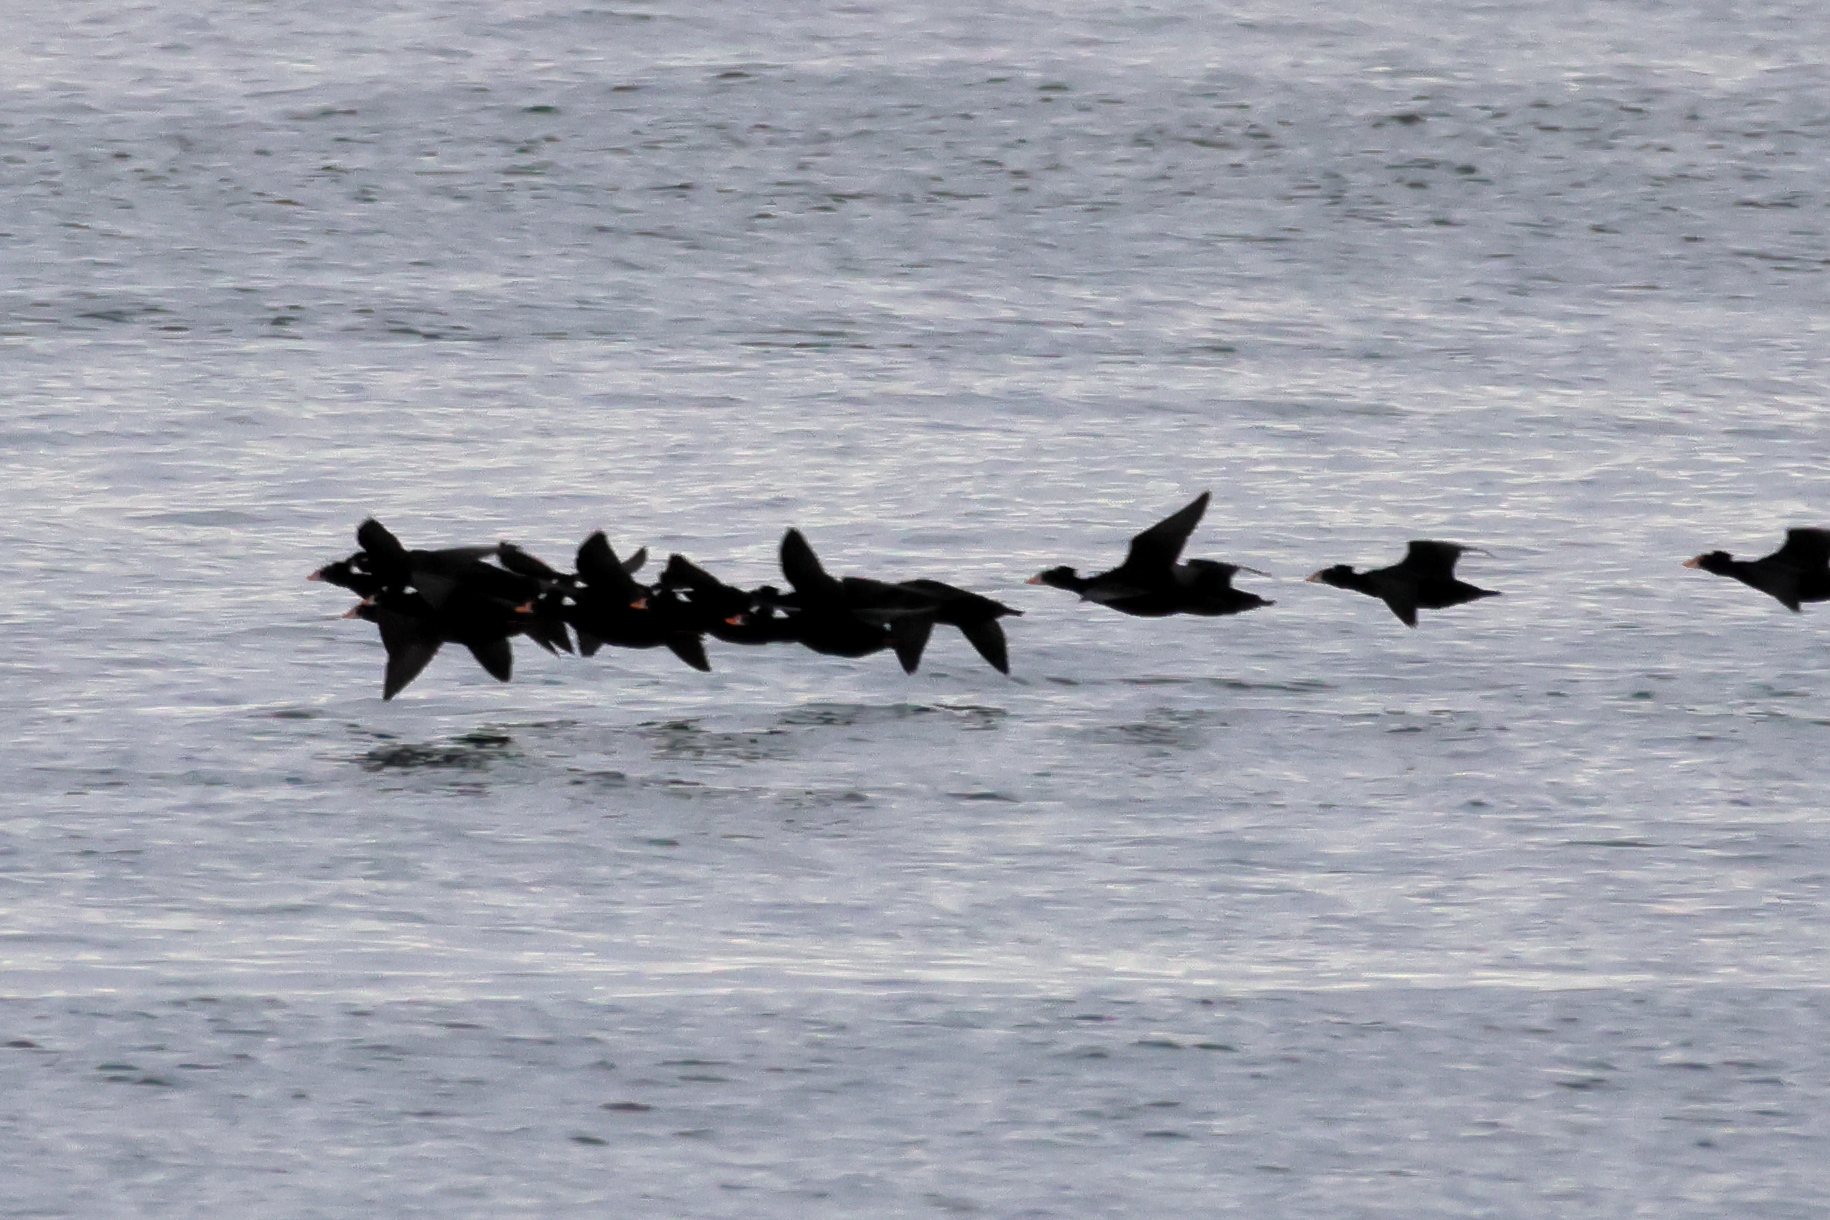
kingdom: Animalia
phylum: Chordata
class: Aves
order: Anseriformes
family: Anatidae
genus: Melanitta
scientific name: Melanitta perspicillata
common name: Surf scoter
